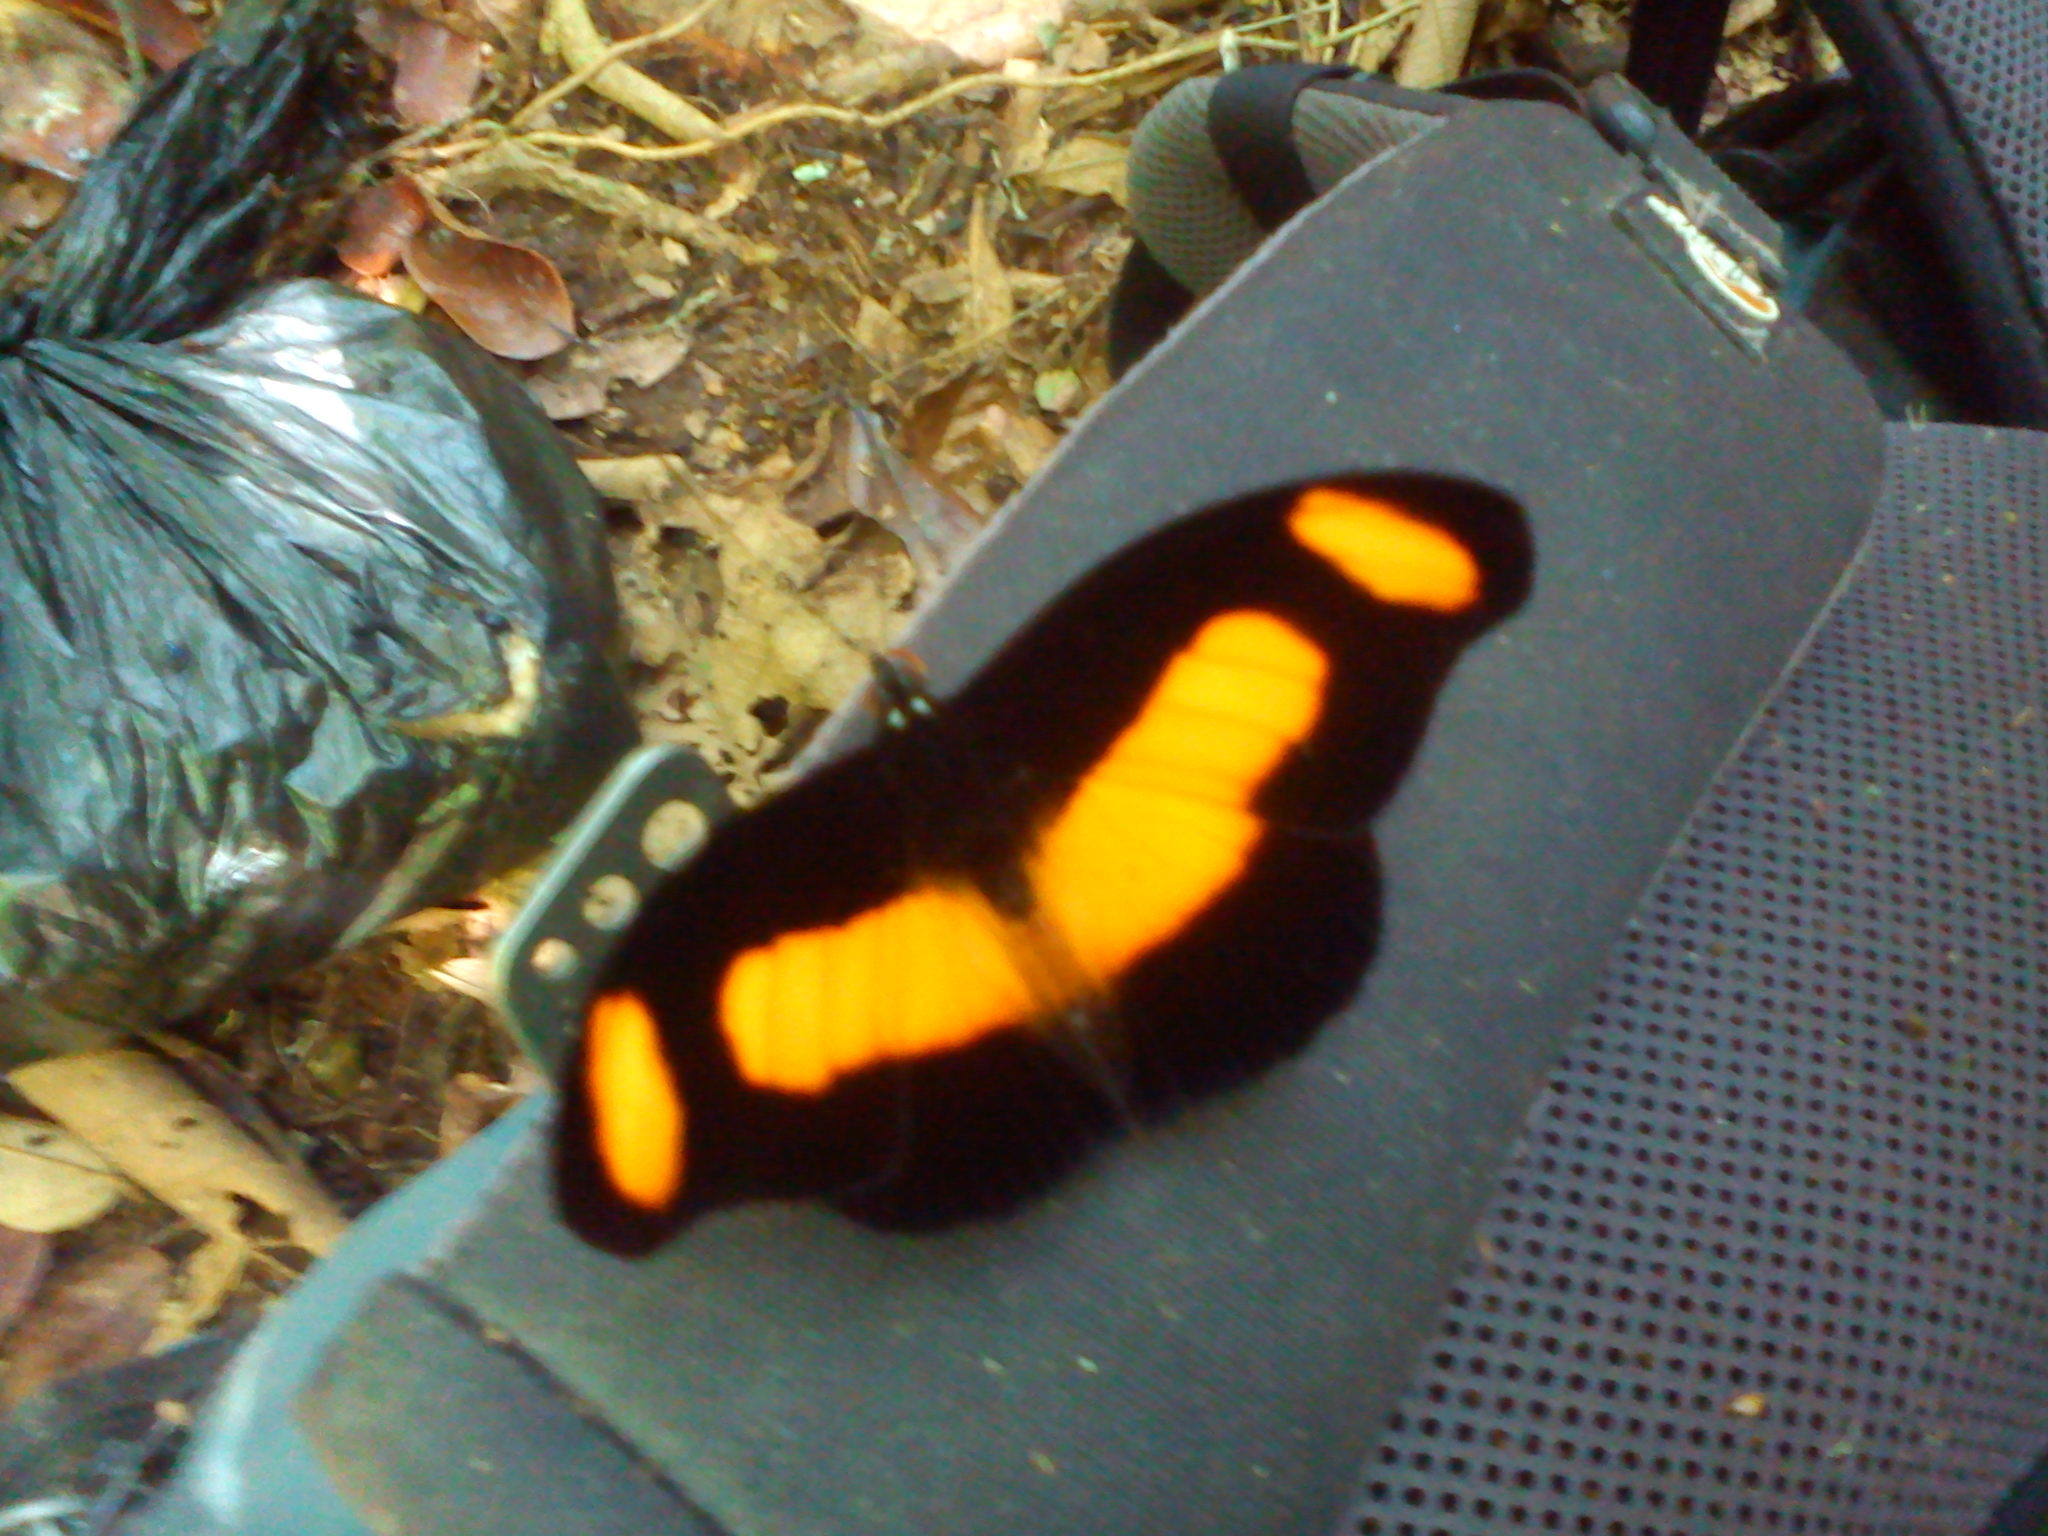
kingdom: Animalia
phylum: Arthropoda
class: Insecta
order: Lepidoptera
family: Nymphalidae
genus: Catonephele
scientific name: Catonephele chromis
